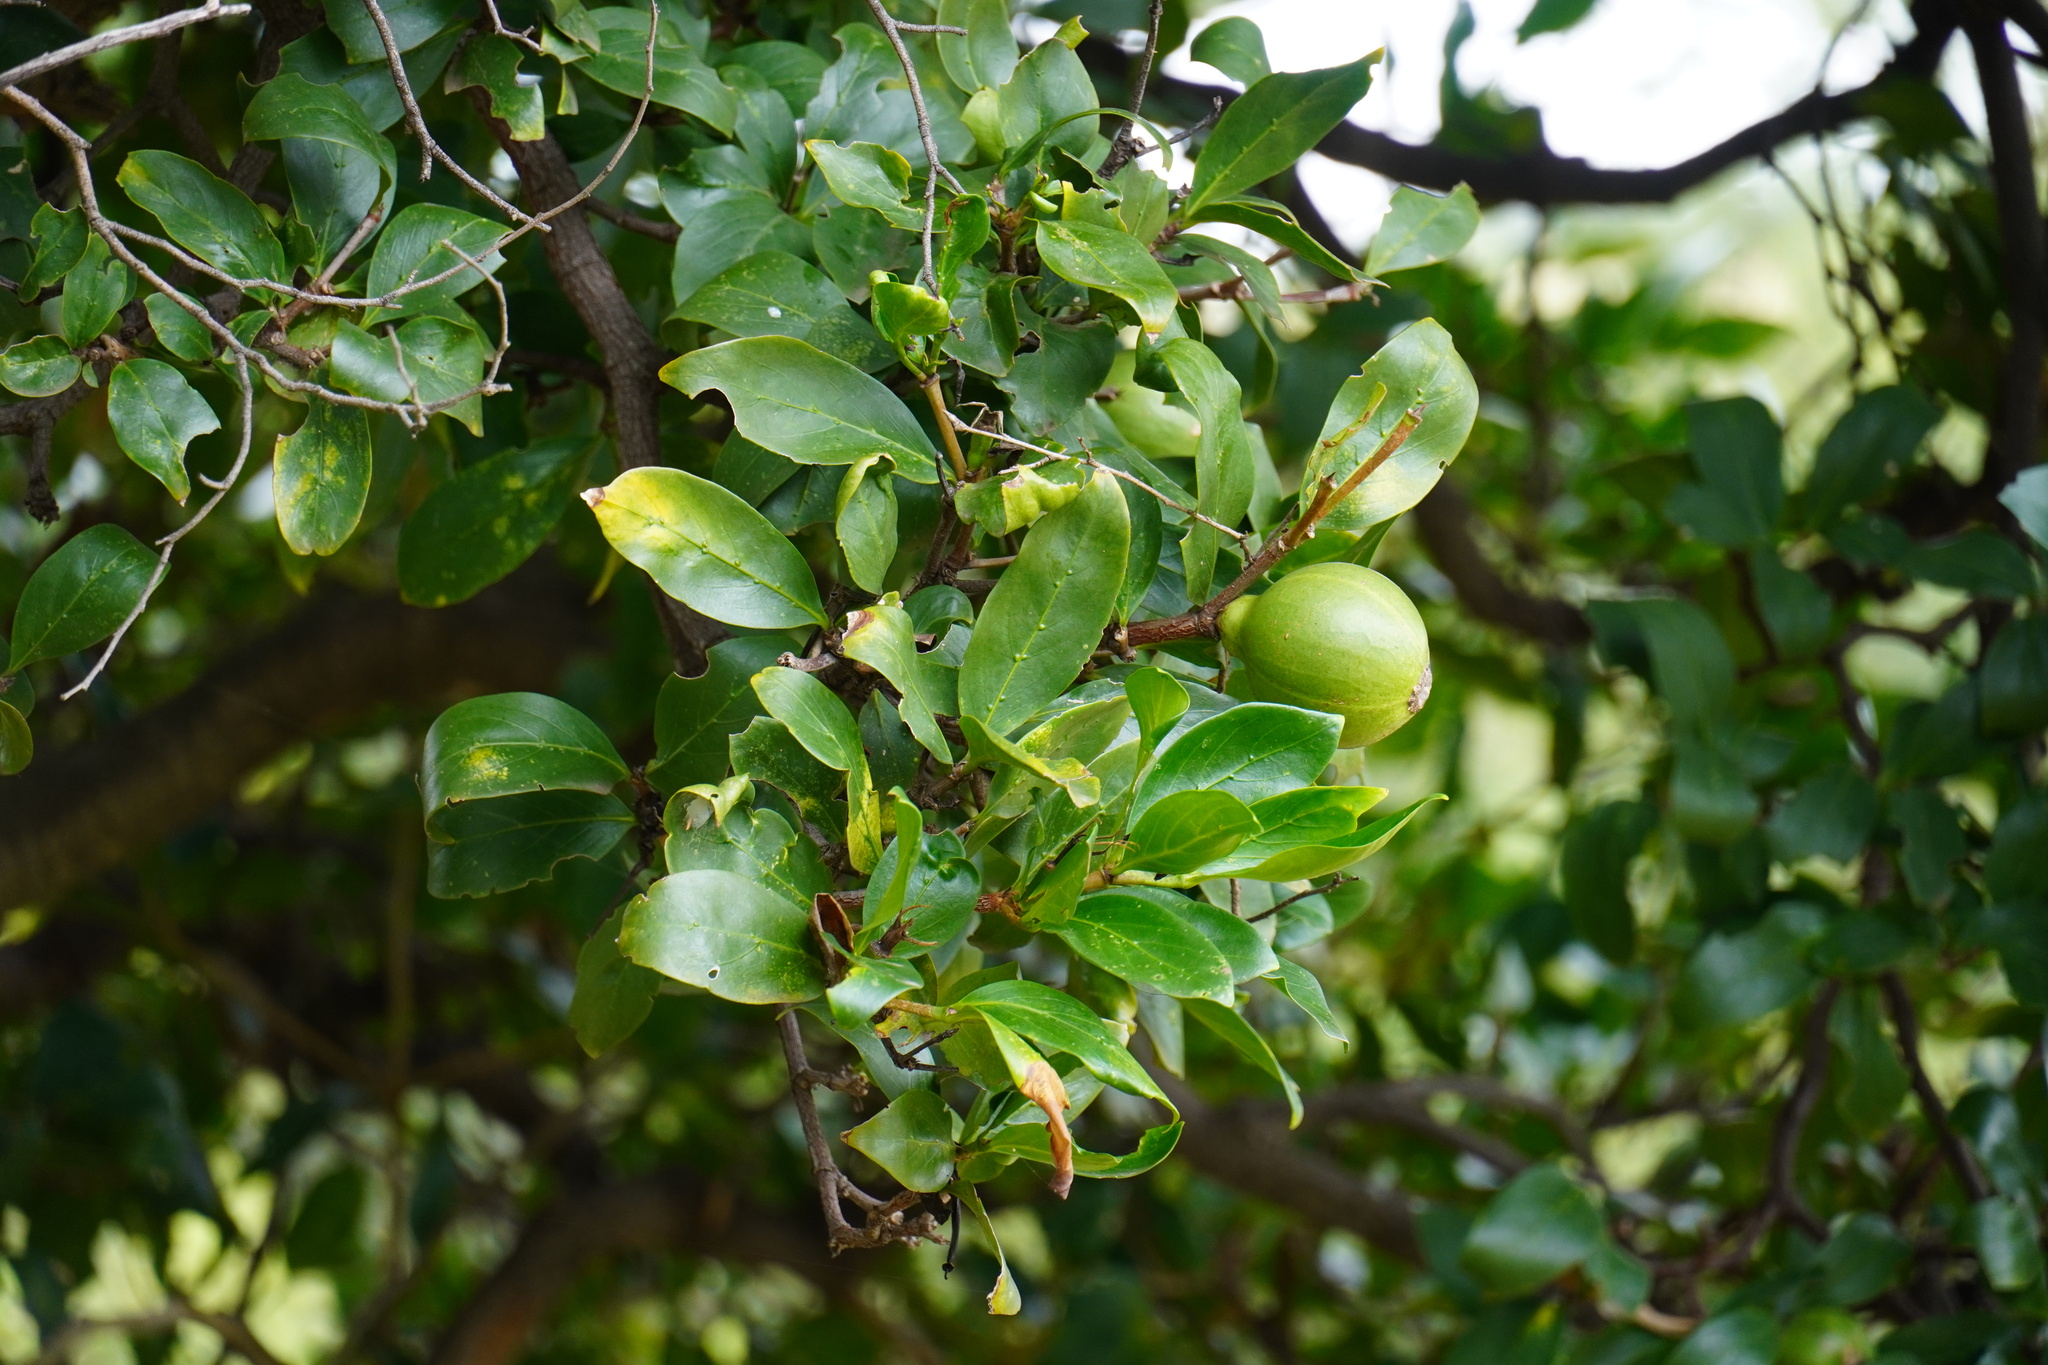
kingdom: Plantae
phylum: Tracheophyta
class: Magnoliopsida
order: Gentianales
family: Rubiaceae
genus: Rothmannia
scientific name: Rothmannia capensis
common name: Cape gardenia
